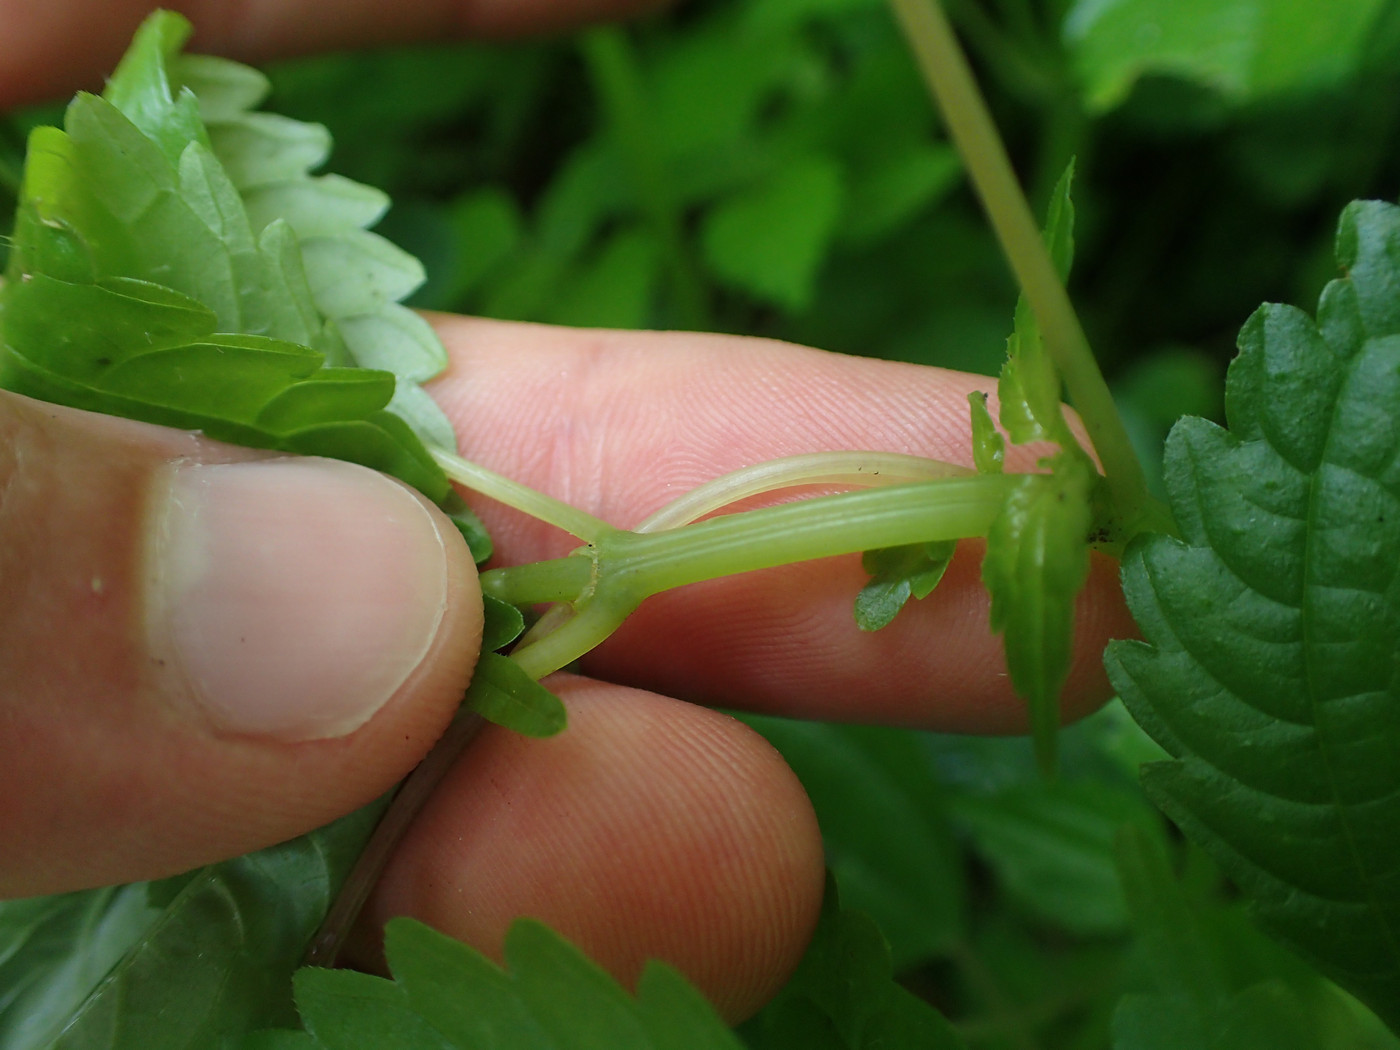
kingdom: Plantae
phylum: Tracheophyta
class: Magnoliopsida
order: Rosales
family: Urticaceae
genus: Pilea
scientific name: Pilea pumila
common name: Clearweed
